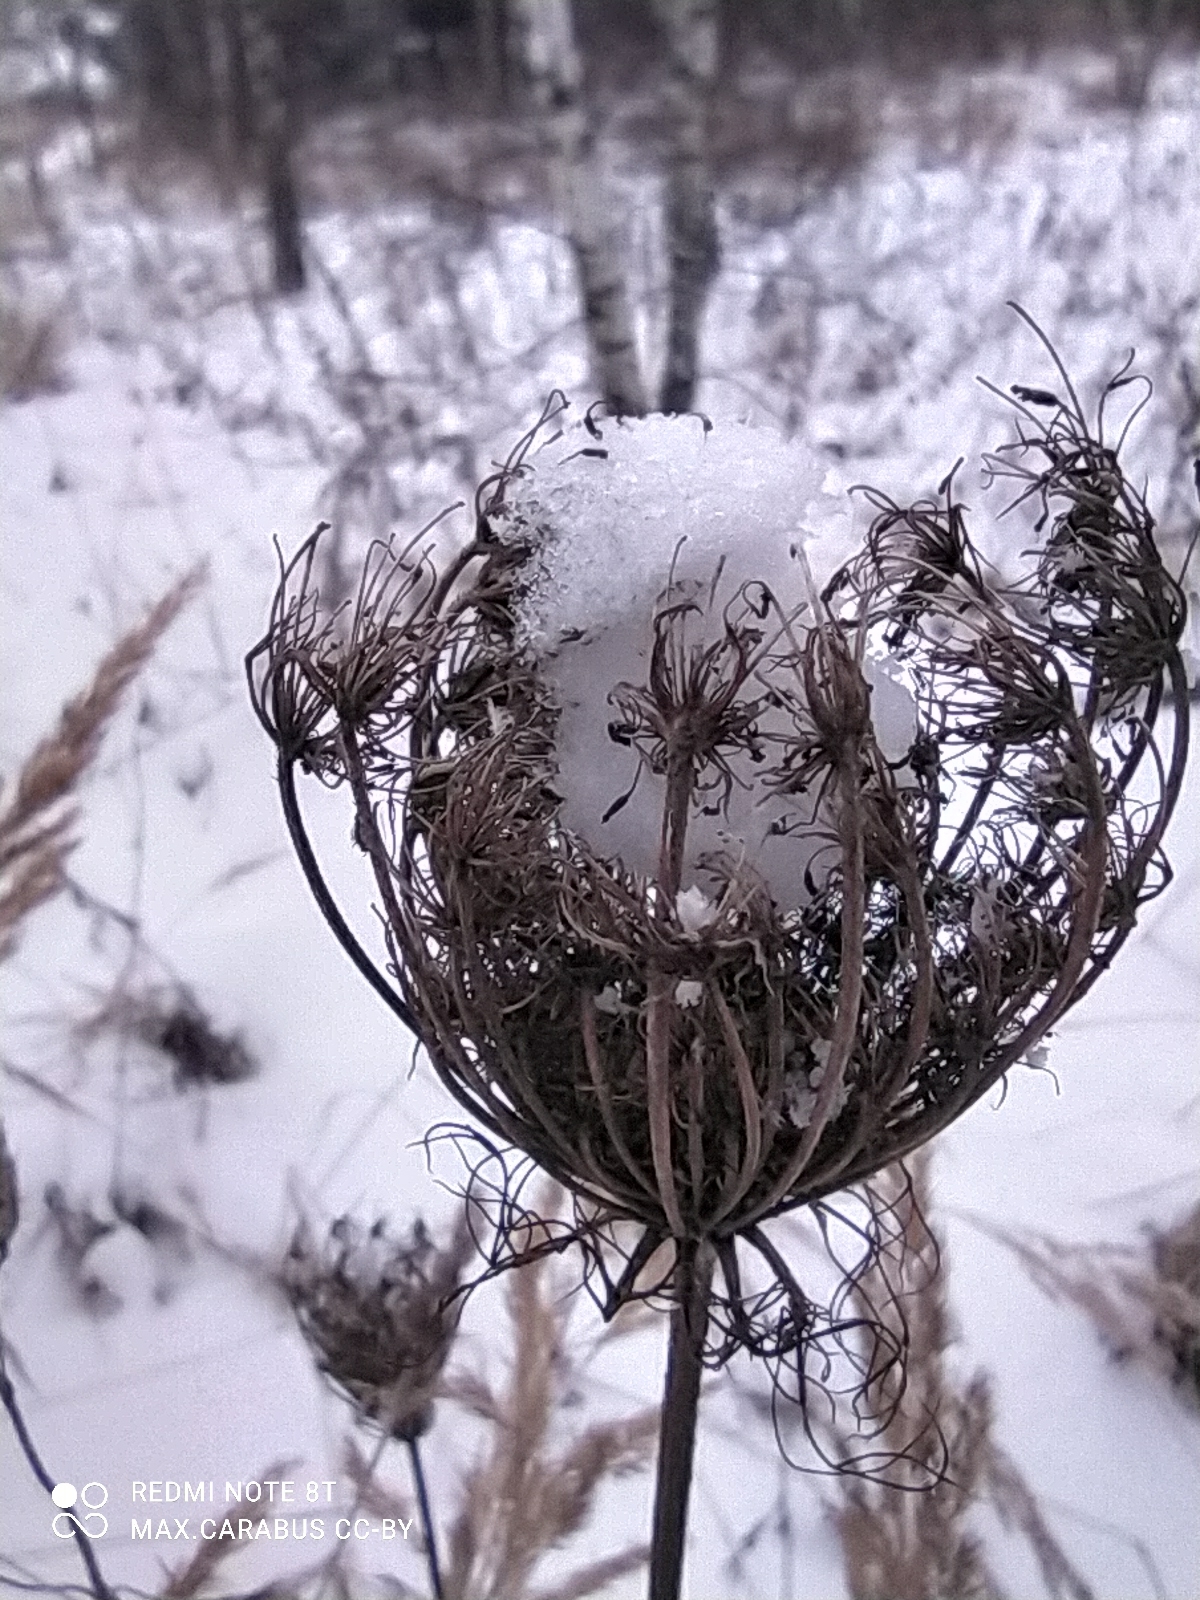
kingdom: Plantae
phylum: Tracheophyta
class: Magnoliopsida
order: Apiales
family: Apiaceae
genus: Daucus
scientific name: Daucus carota
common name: Wild carrot
